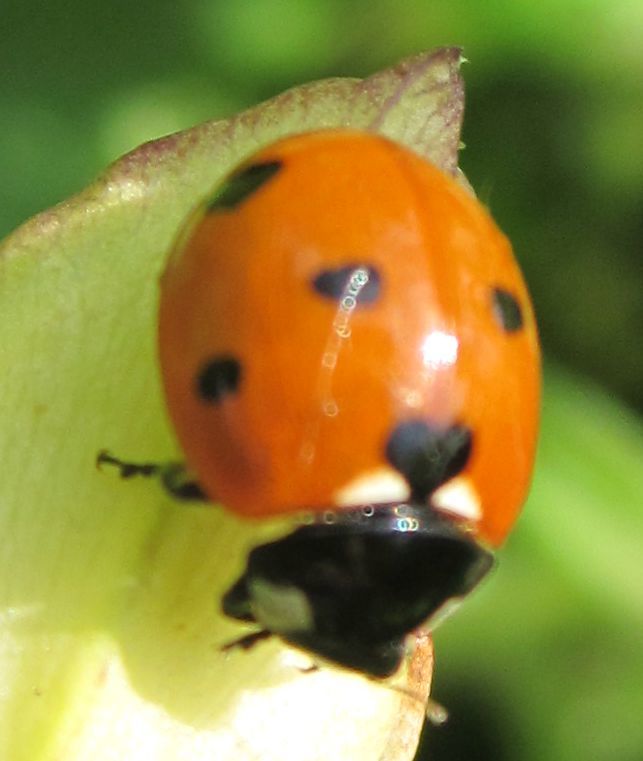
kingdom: Animalia
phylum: Arthropoda
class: Insecta
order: Coleoptera
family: Coccinellidae
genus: Coccinella
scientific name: Coccinella septempunctata
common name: Sevenspotted lady beetle
